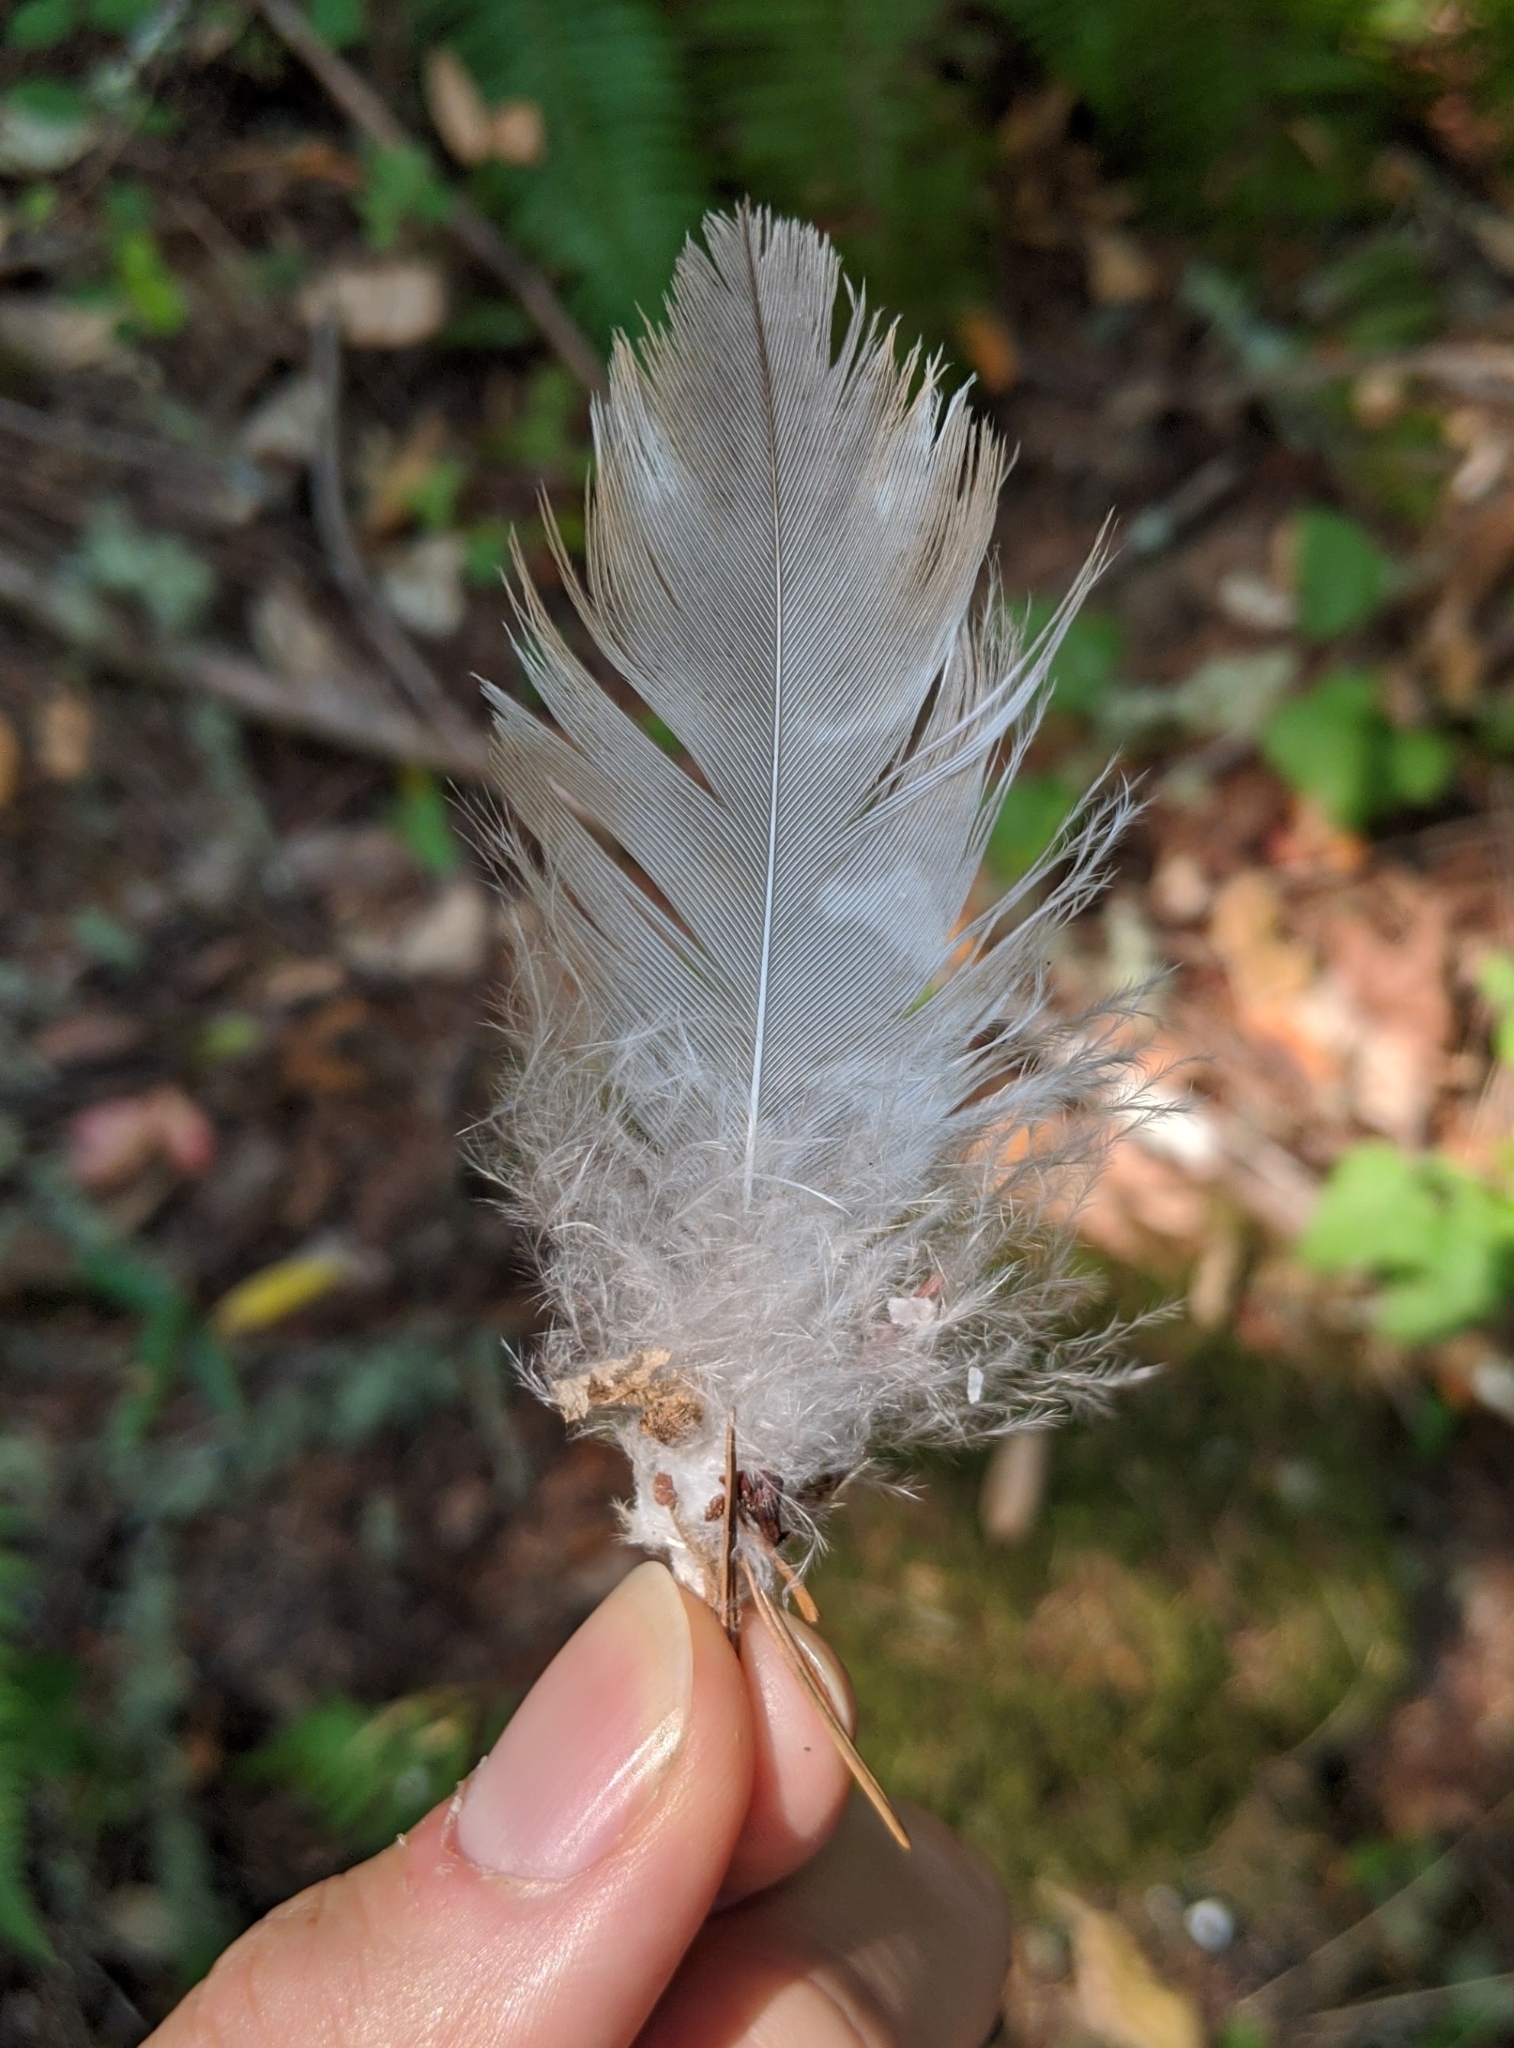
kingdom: Animalia
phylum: Chordata
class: Aves
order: Accipitriformes
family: Accipitridae
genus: Buteo
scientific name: Buteo lineatus
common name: Red-shouldered hawk
